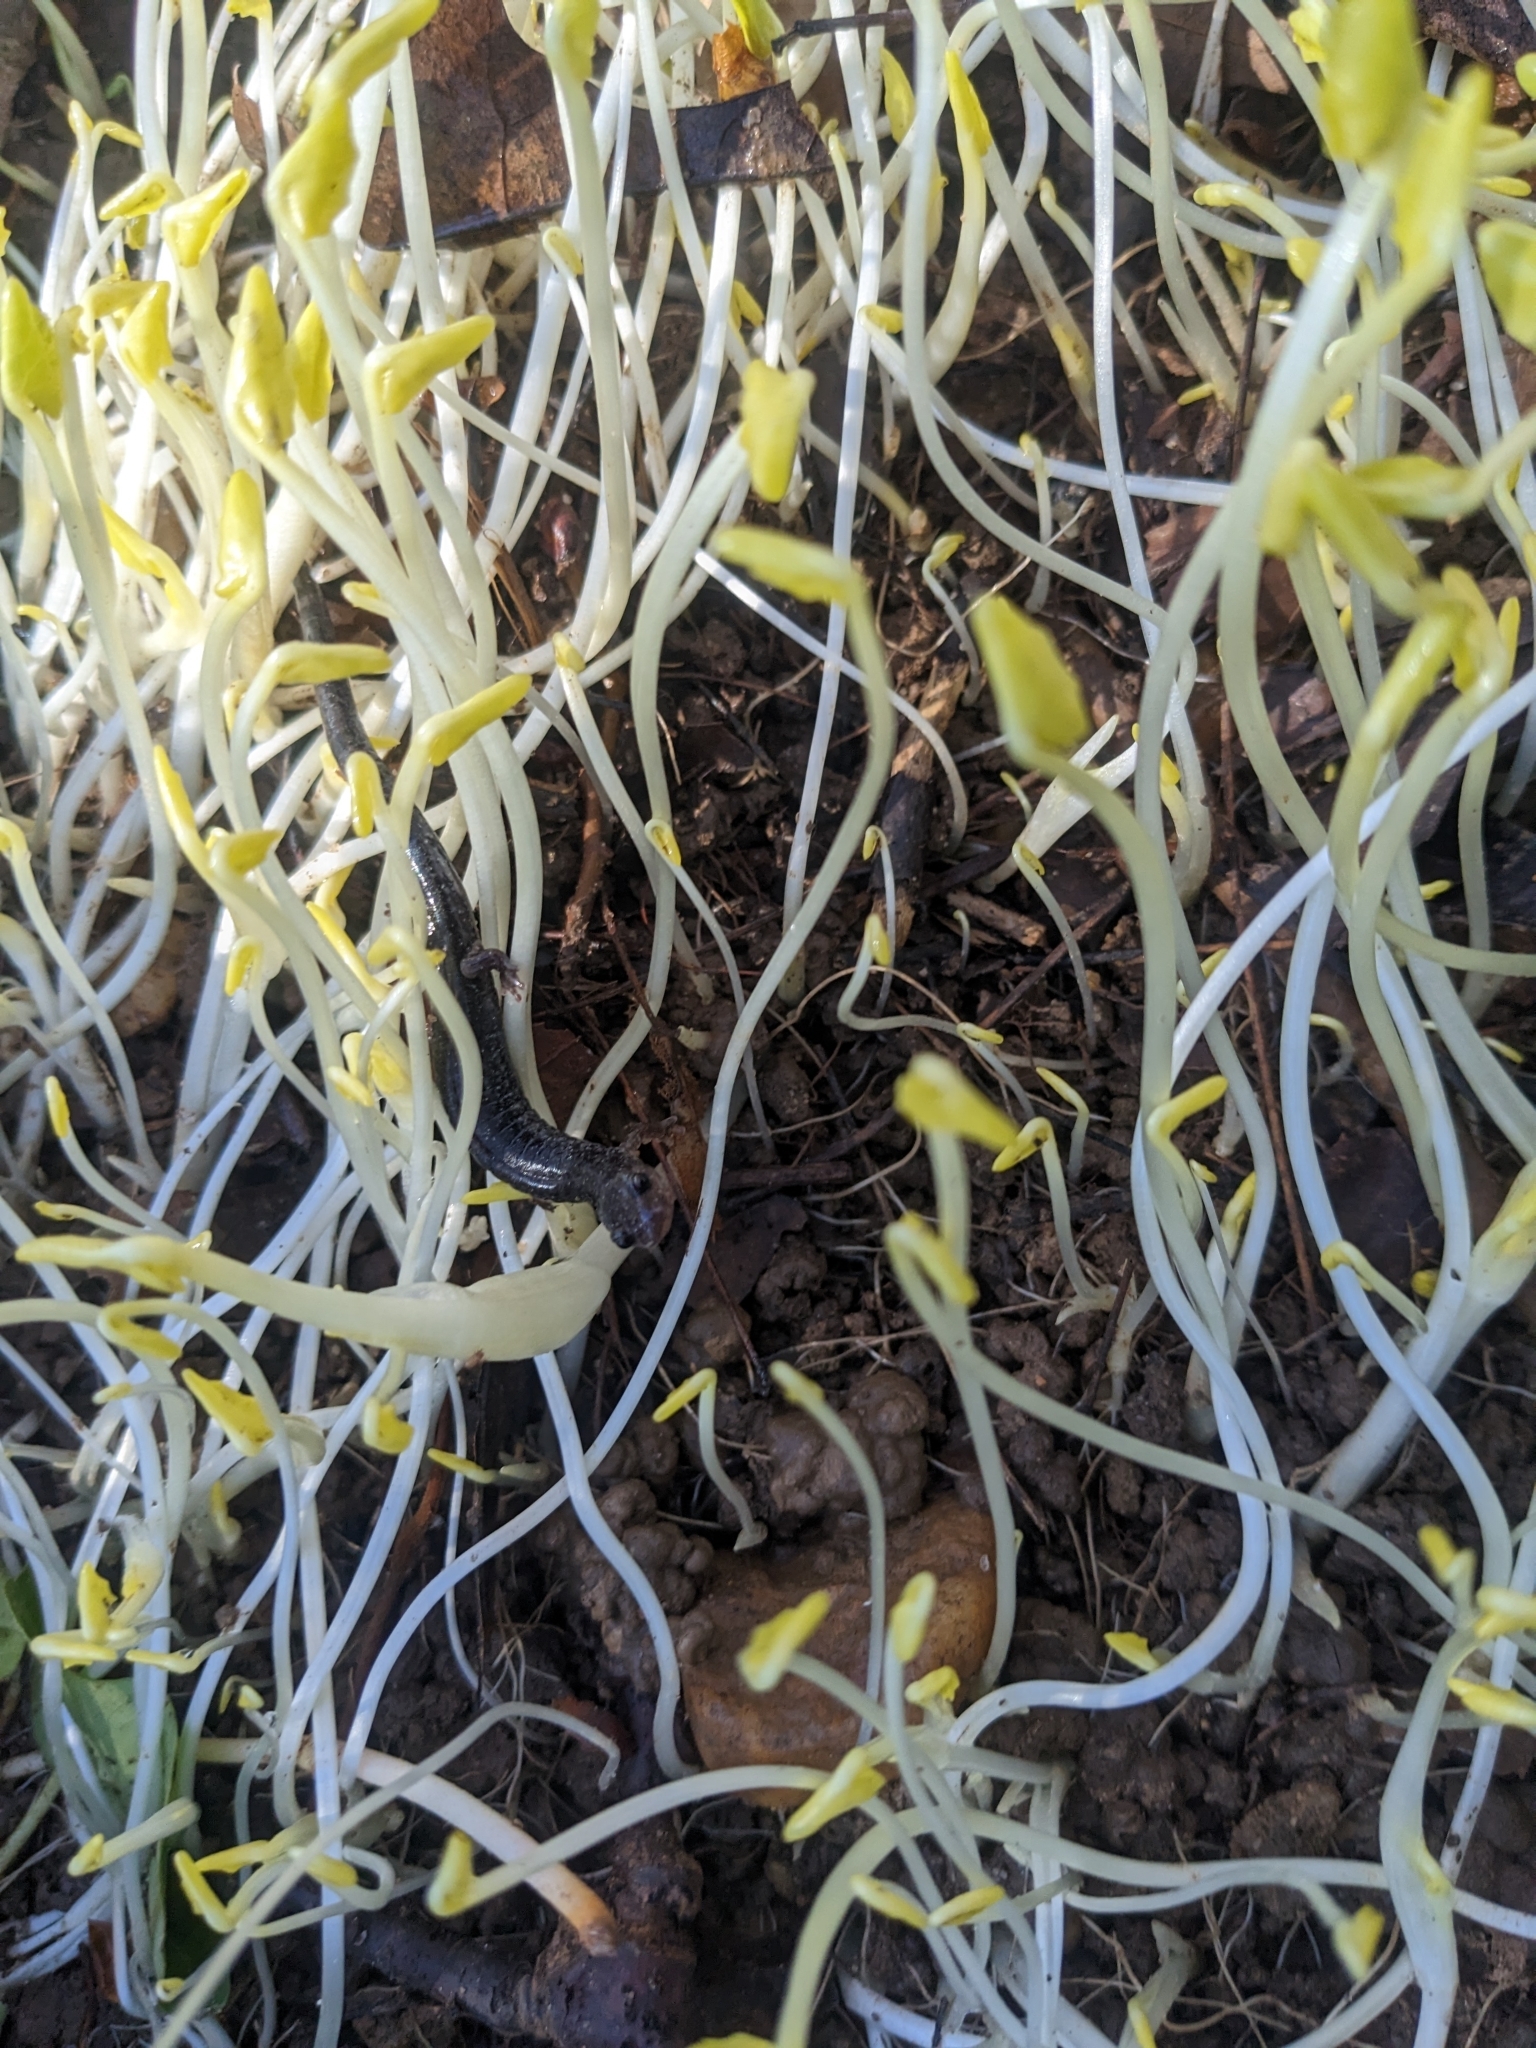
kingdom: Animalia
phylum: Chordata
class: Amphibia
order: Caudata
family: Plethodontidae
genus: Plethodon
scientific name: Plethodon cinereus
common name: Redback salamander
